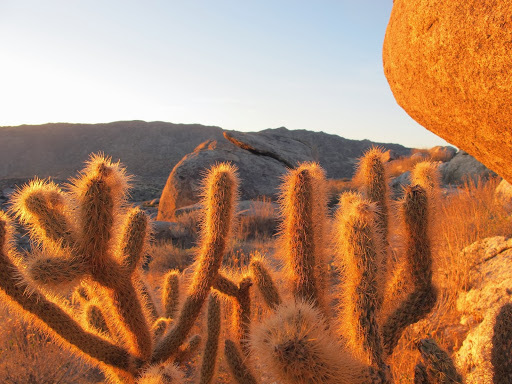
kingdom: Plantae
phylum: Tracheophyta
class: Magnoliopsida
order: Caryophyllales
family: Cactaceae
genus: Cylindropuntia
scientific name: Cylindropuntia ganderi
